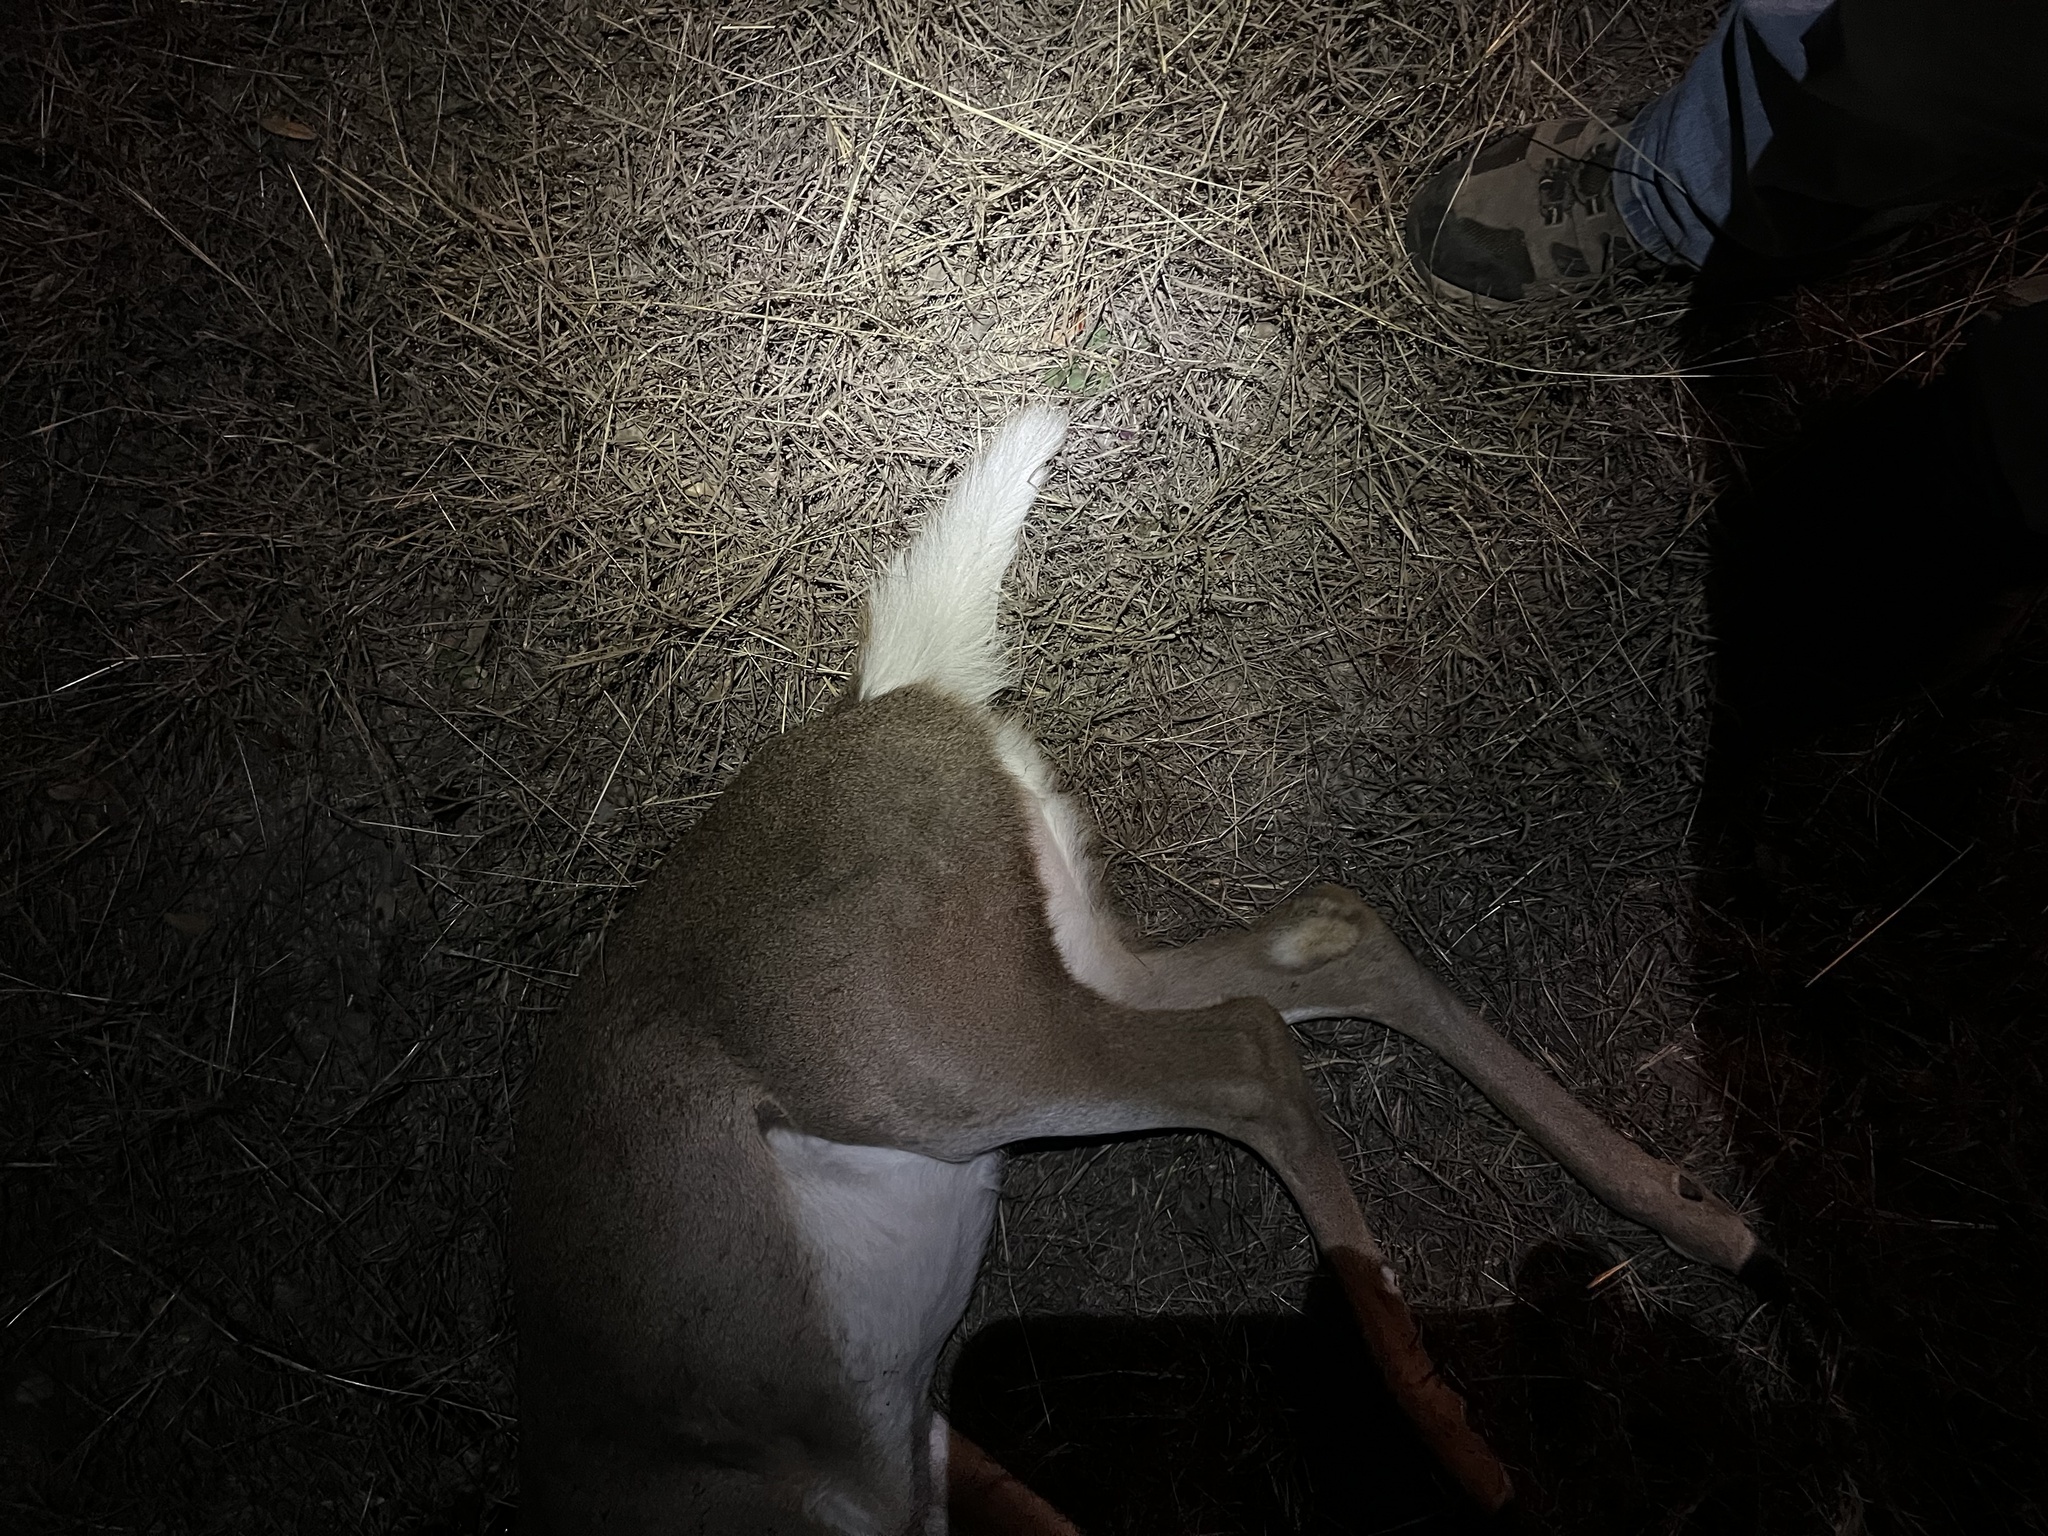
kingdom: Animalia
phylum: Chordata
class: Mammalia
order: Artiodactyla
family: Cervidae
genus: Odocoileus
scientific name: Odocoileus virginianus
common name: White-tailed deer
